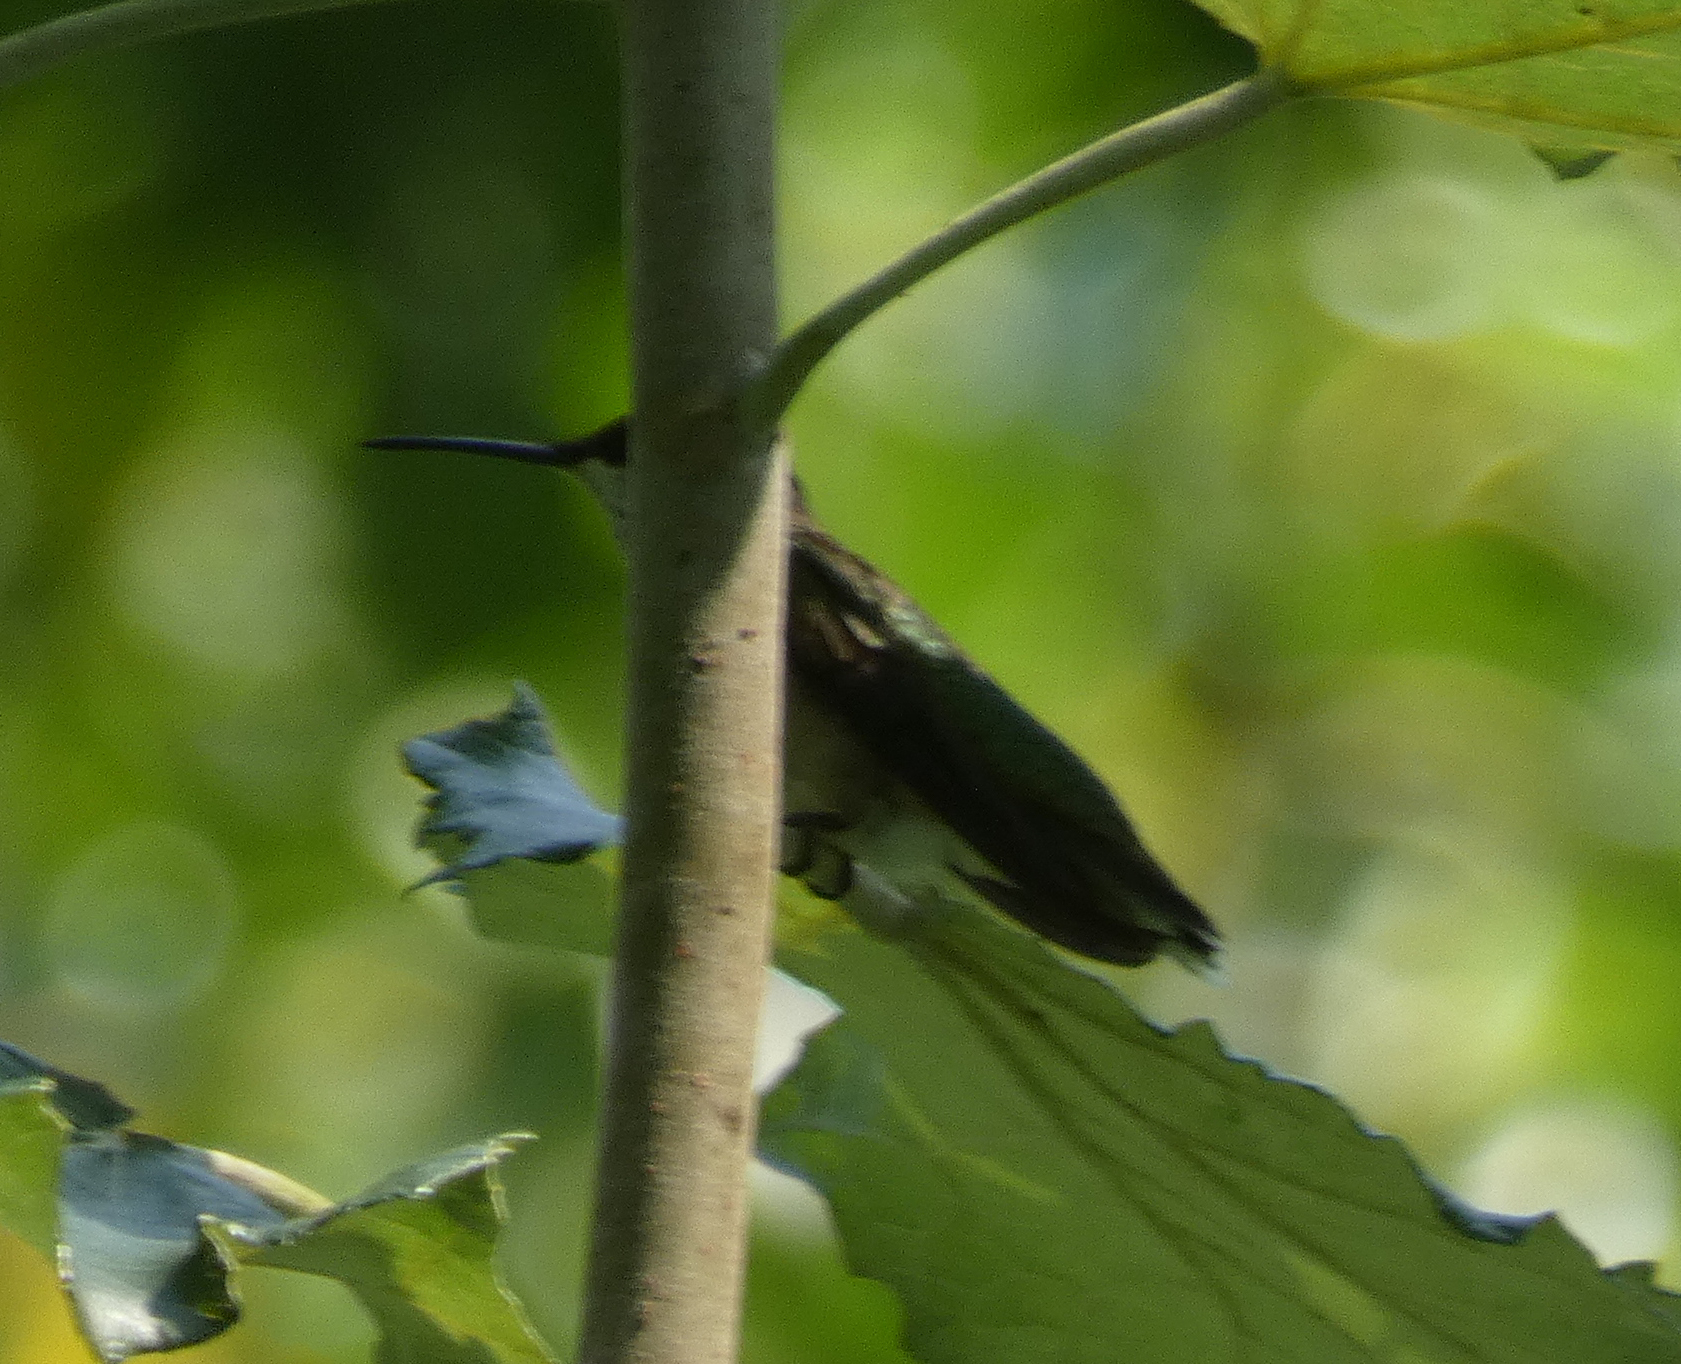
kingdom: Animalia
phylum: Chordata
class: Aves
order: Apodiformes
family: Trochilidae
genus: Archilochus
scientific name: Archilochus colubris
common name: Ruby-throated hummingbird
